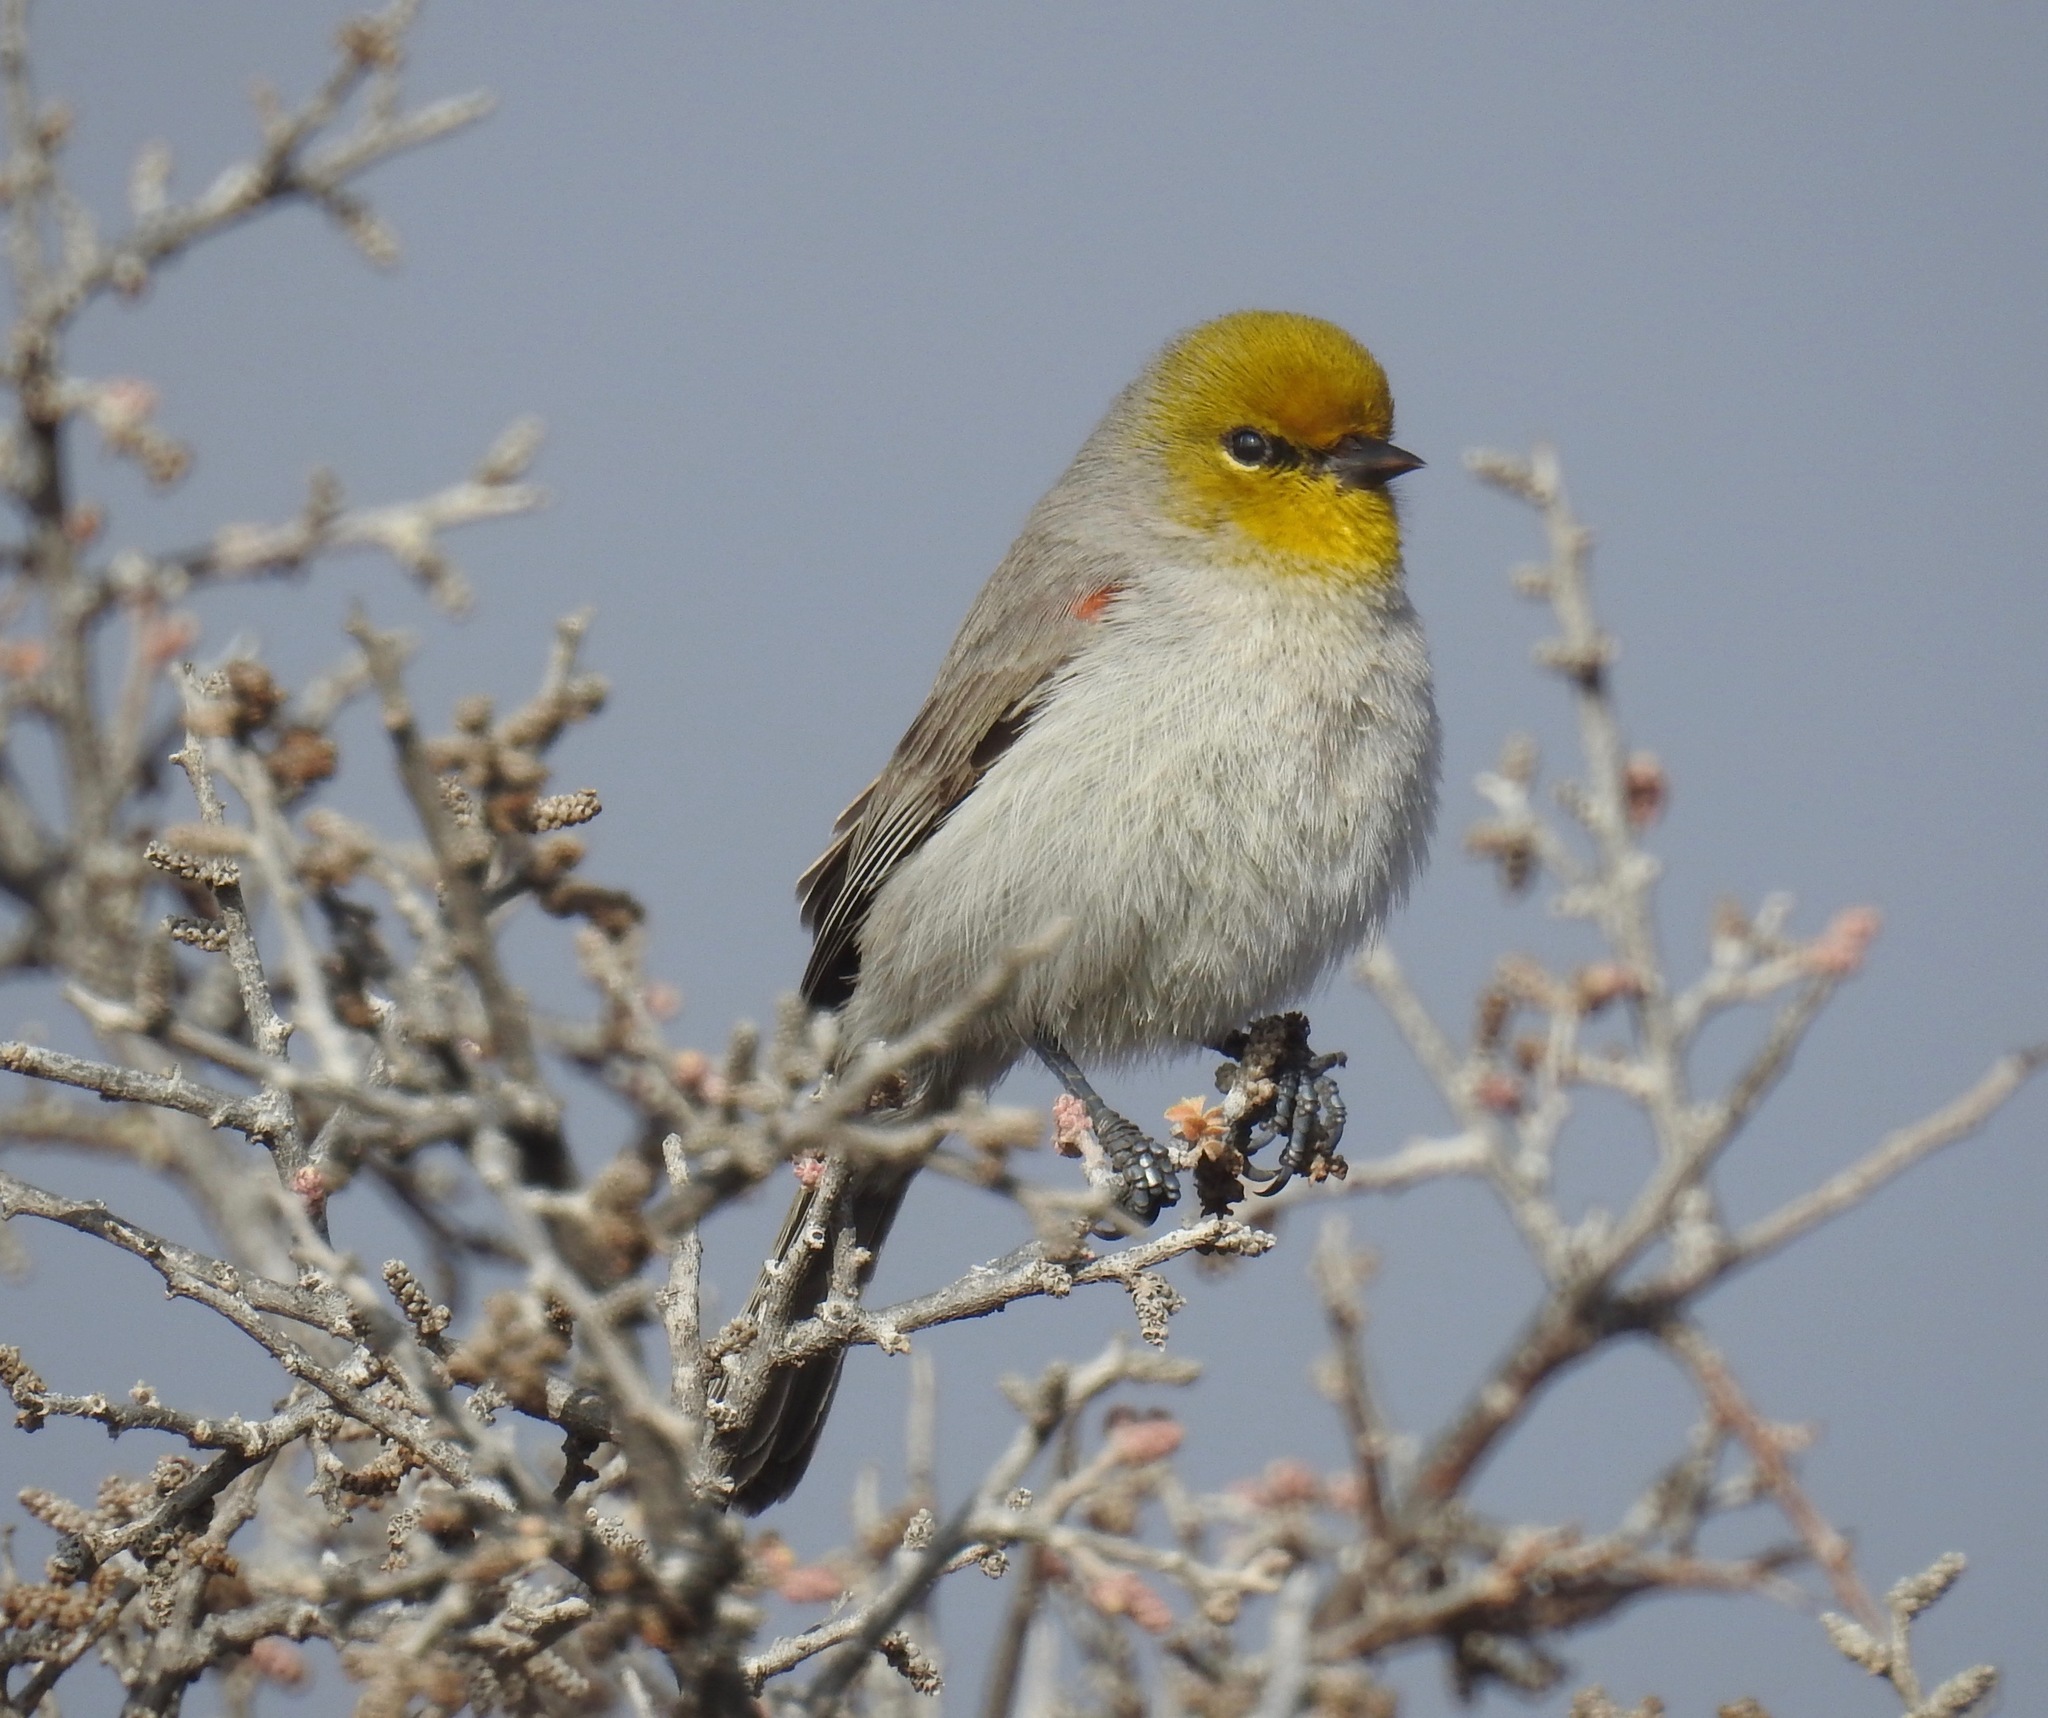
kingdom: Animalia
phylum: Chordata
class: Aves
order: Passeriformes
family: Remizidae
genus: Auriparus
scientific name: Auriparus flaviceps
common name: Verdin
